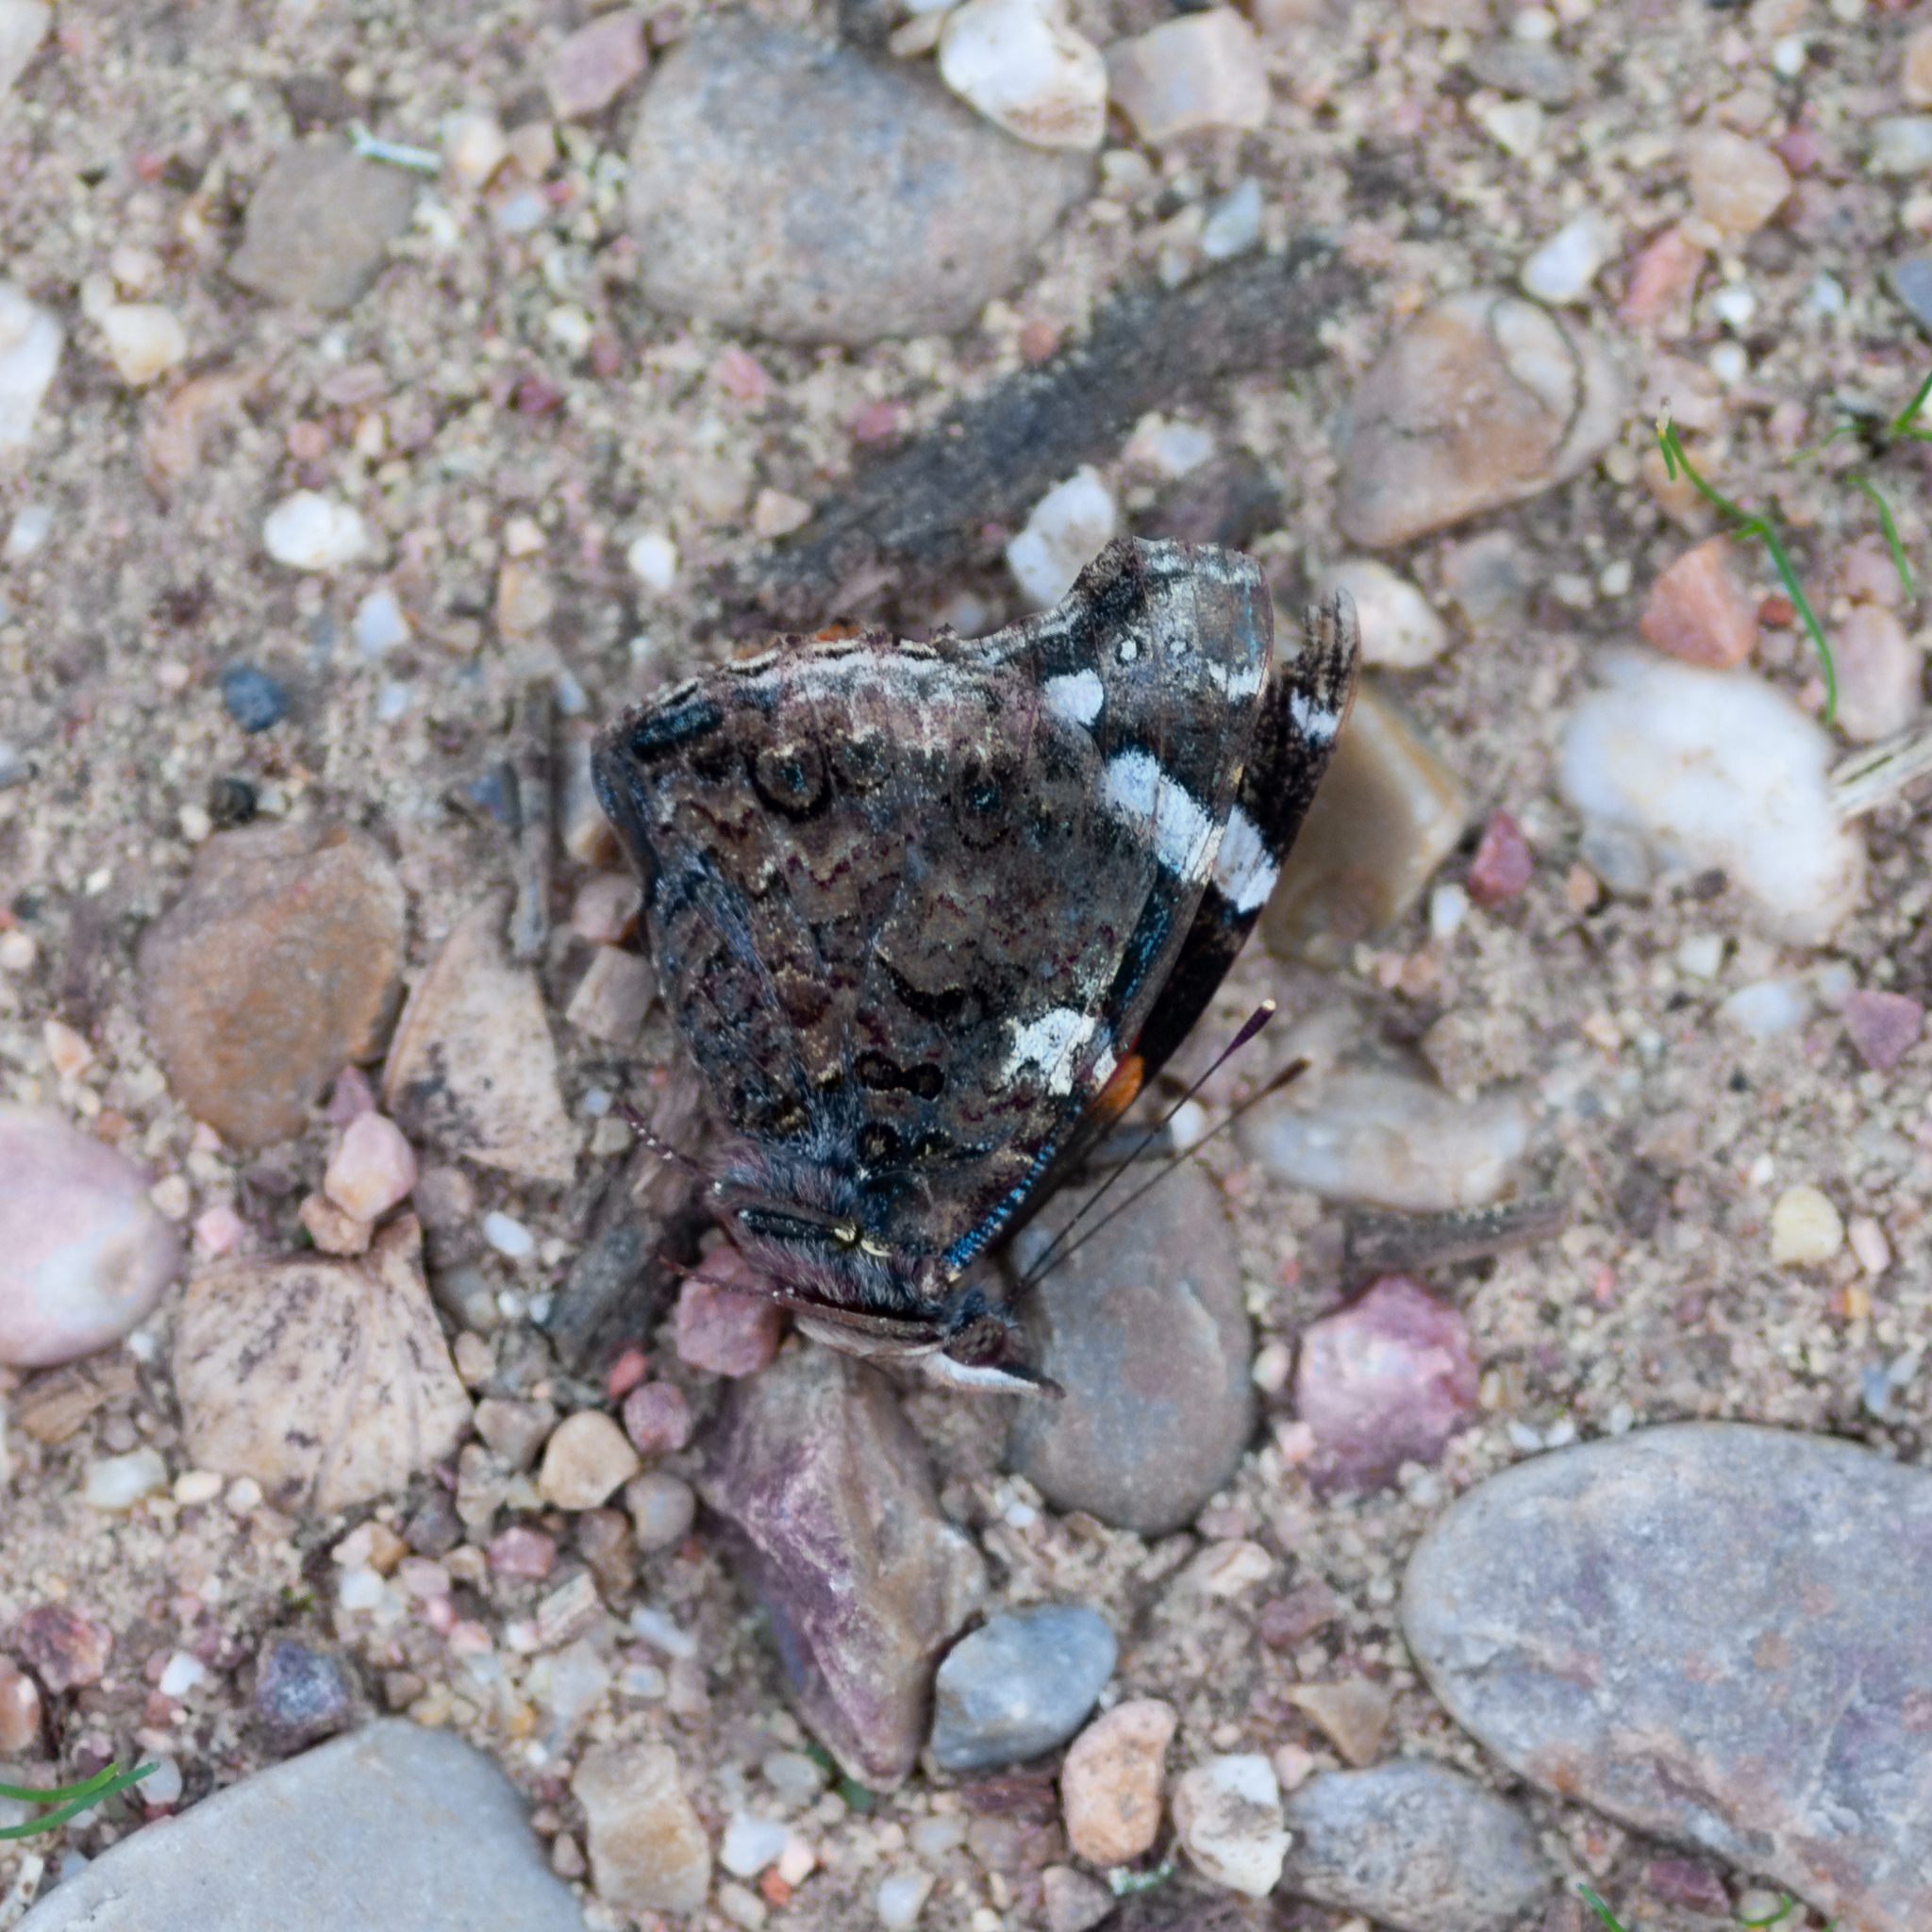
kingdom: Animalia
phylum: Arthropoda
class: Insecta
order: Lepidoptera
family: Nymphalidae
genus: Vanessa
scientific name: Vanessa atalanta
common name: Red admiral
